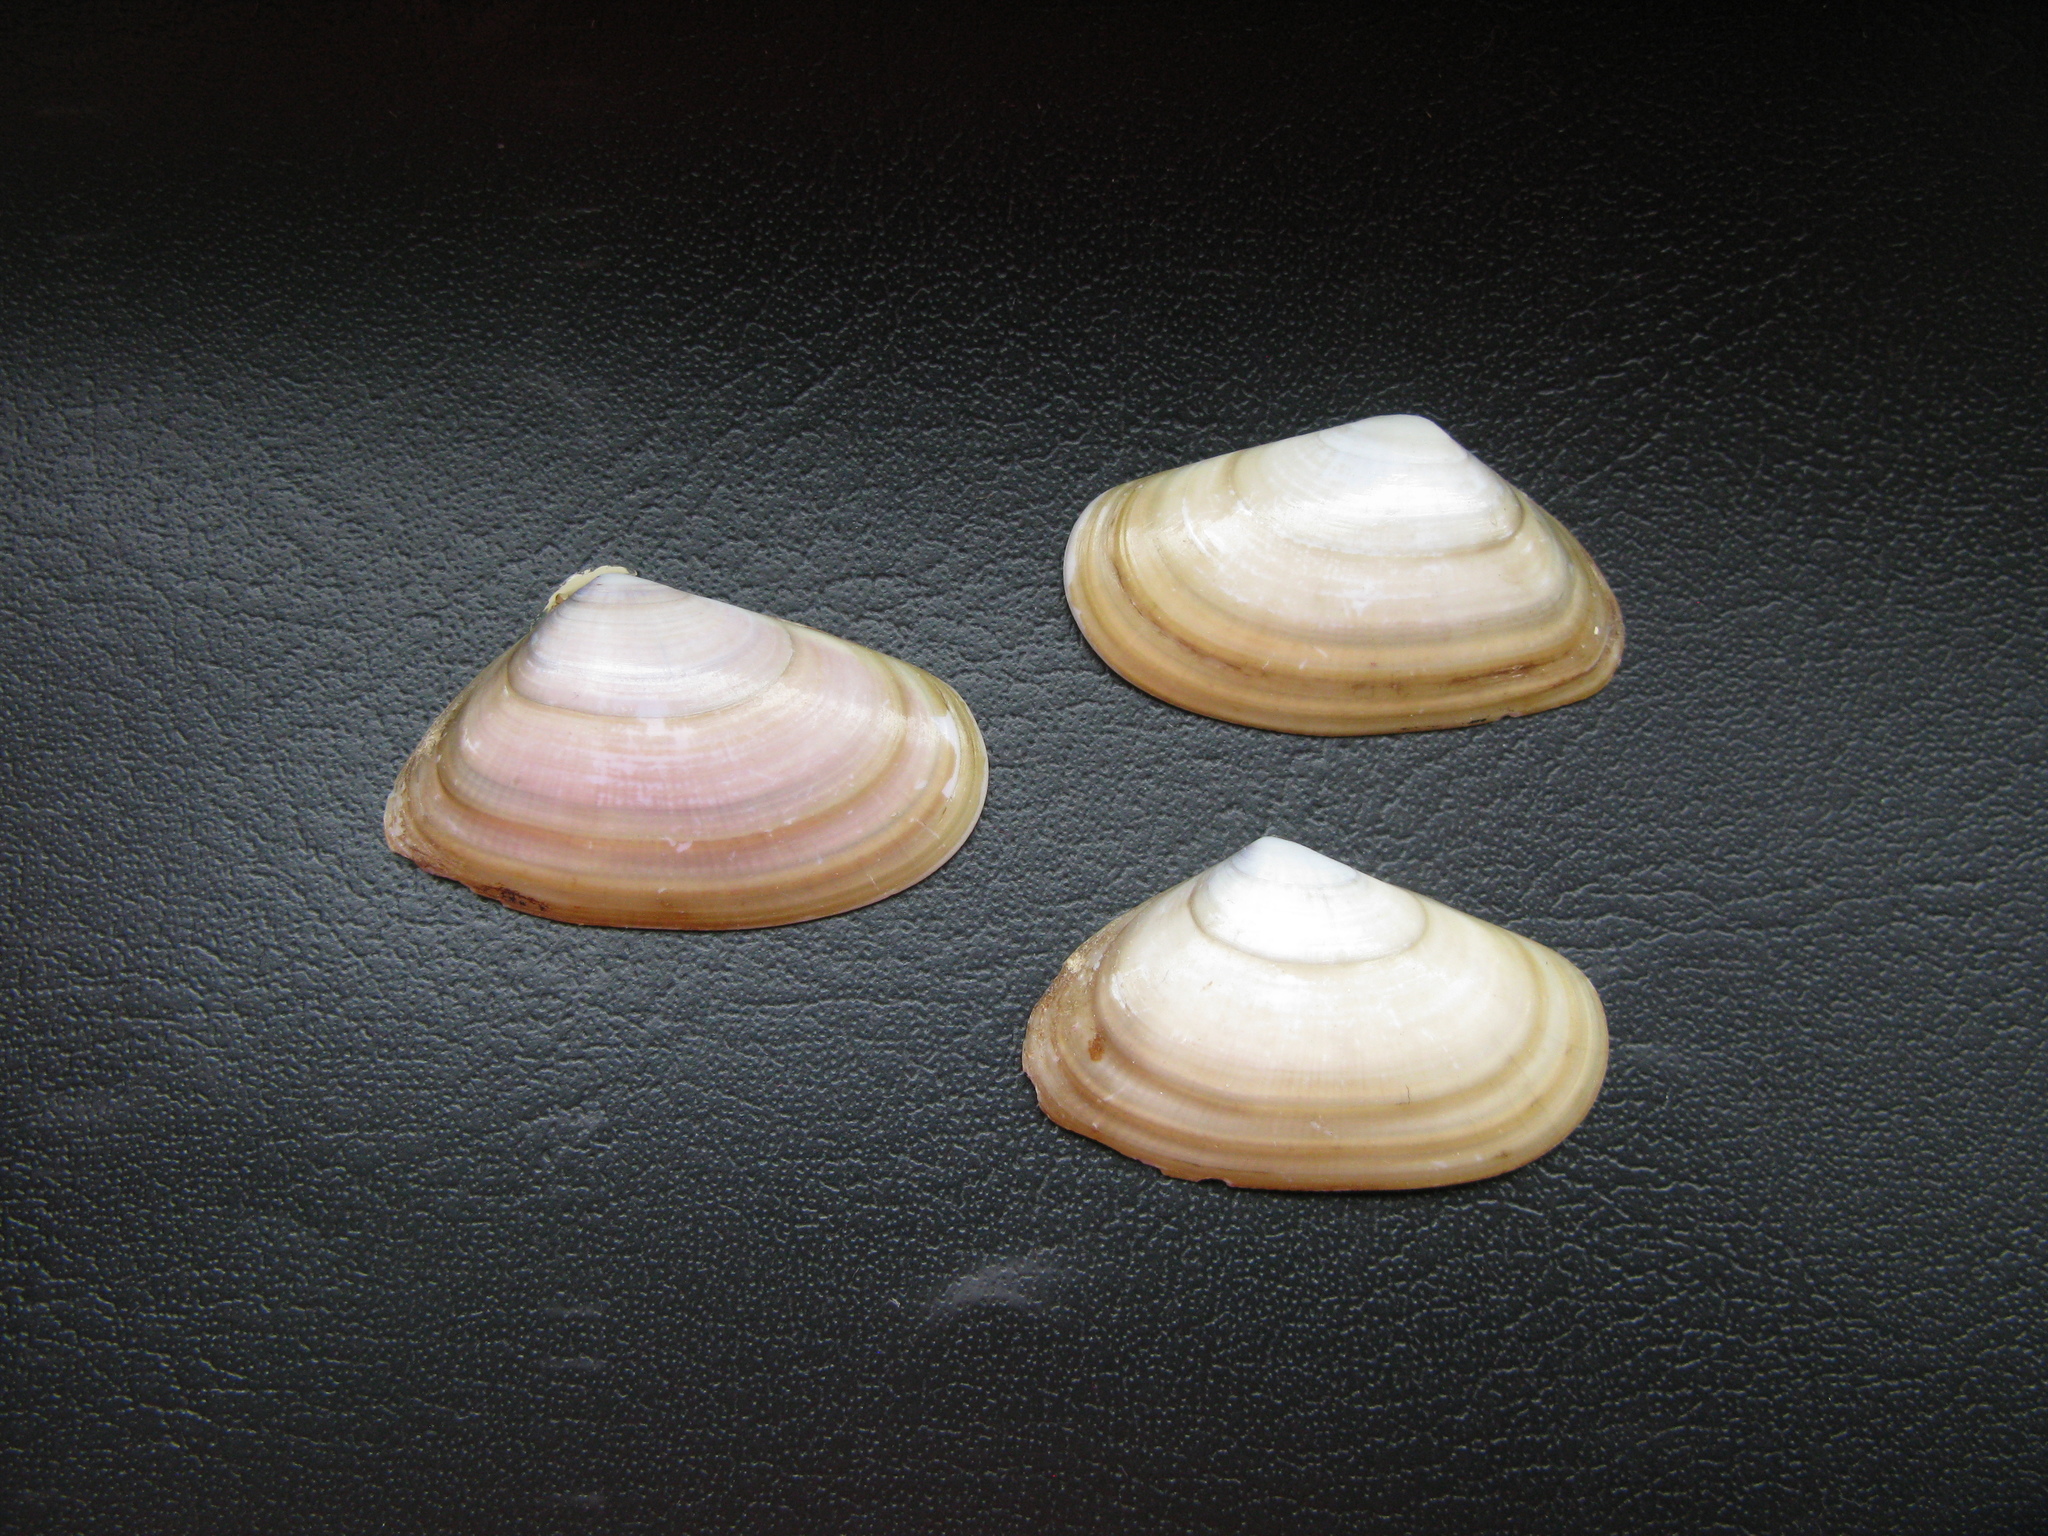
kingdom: Animalia
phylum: Mollusca
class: Bivalvia
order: Cardiida
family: Donacidae
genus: Donax
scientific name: Donax trunculus
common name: Truncate donax
